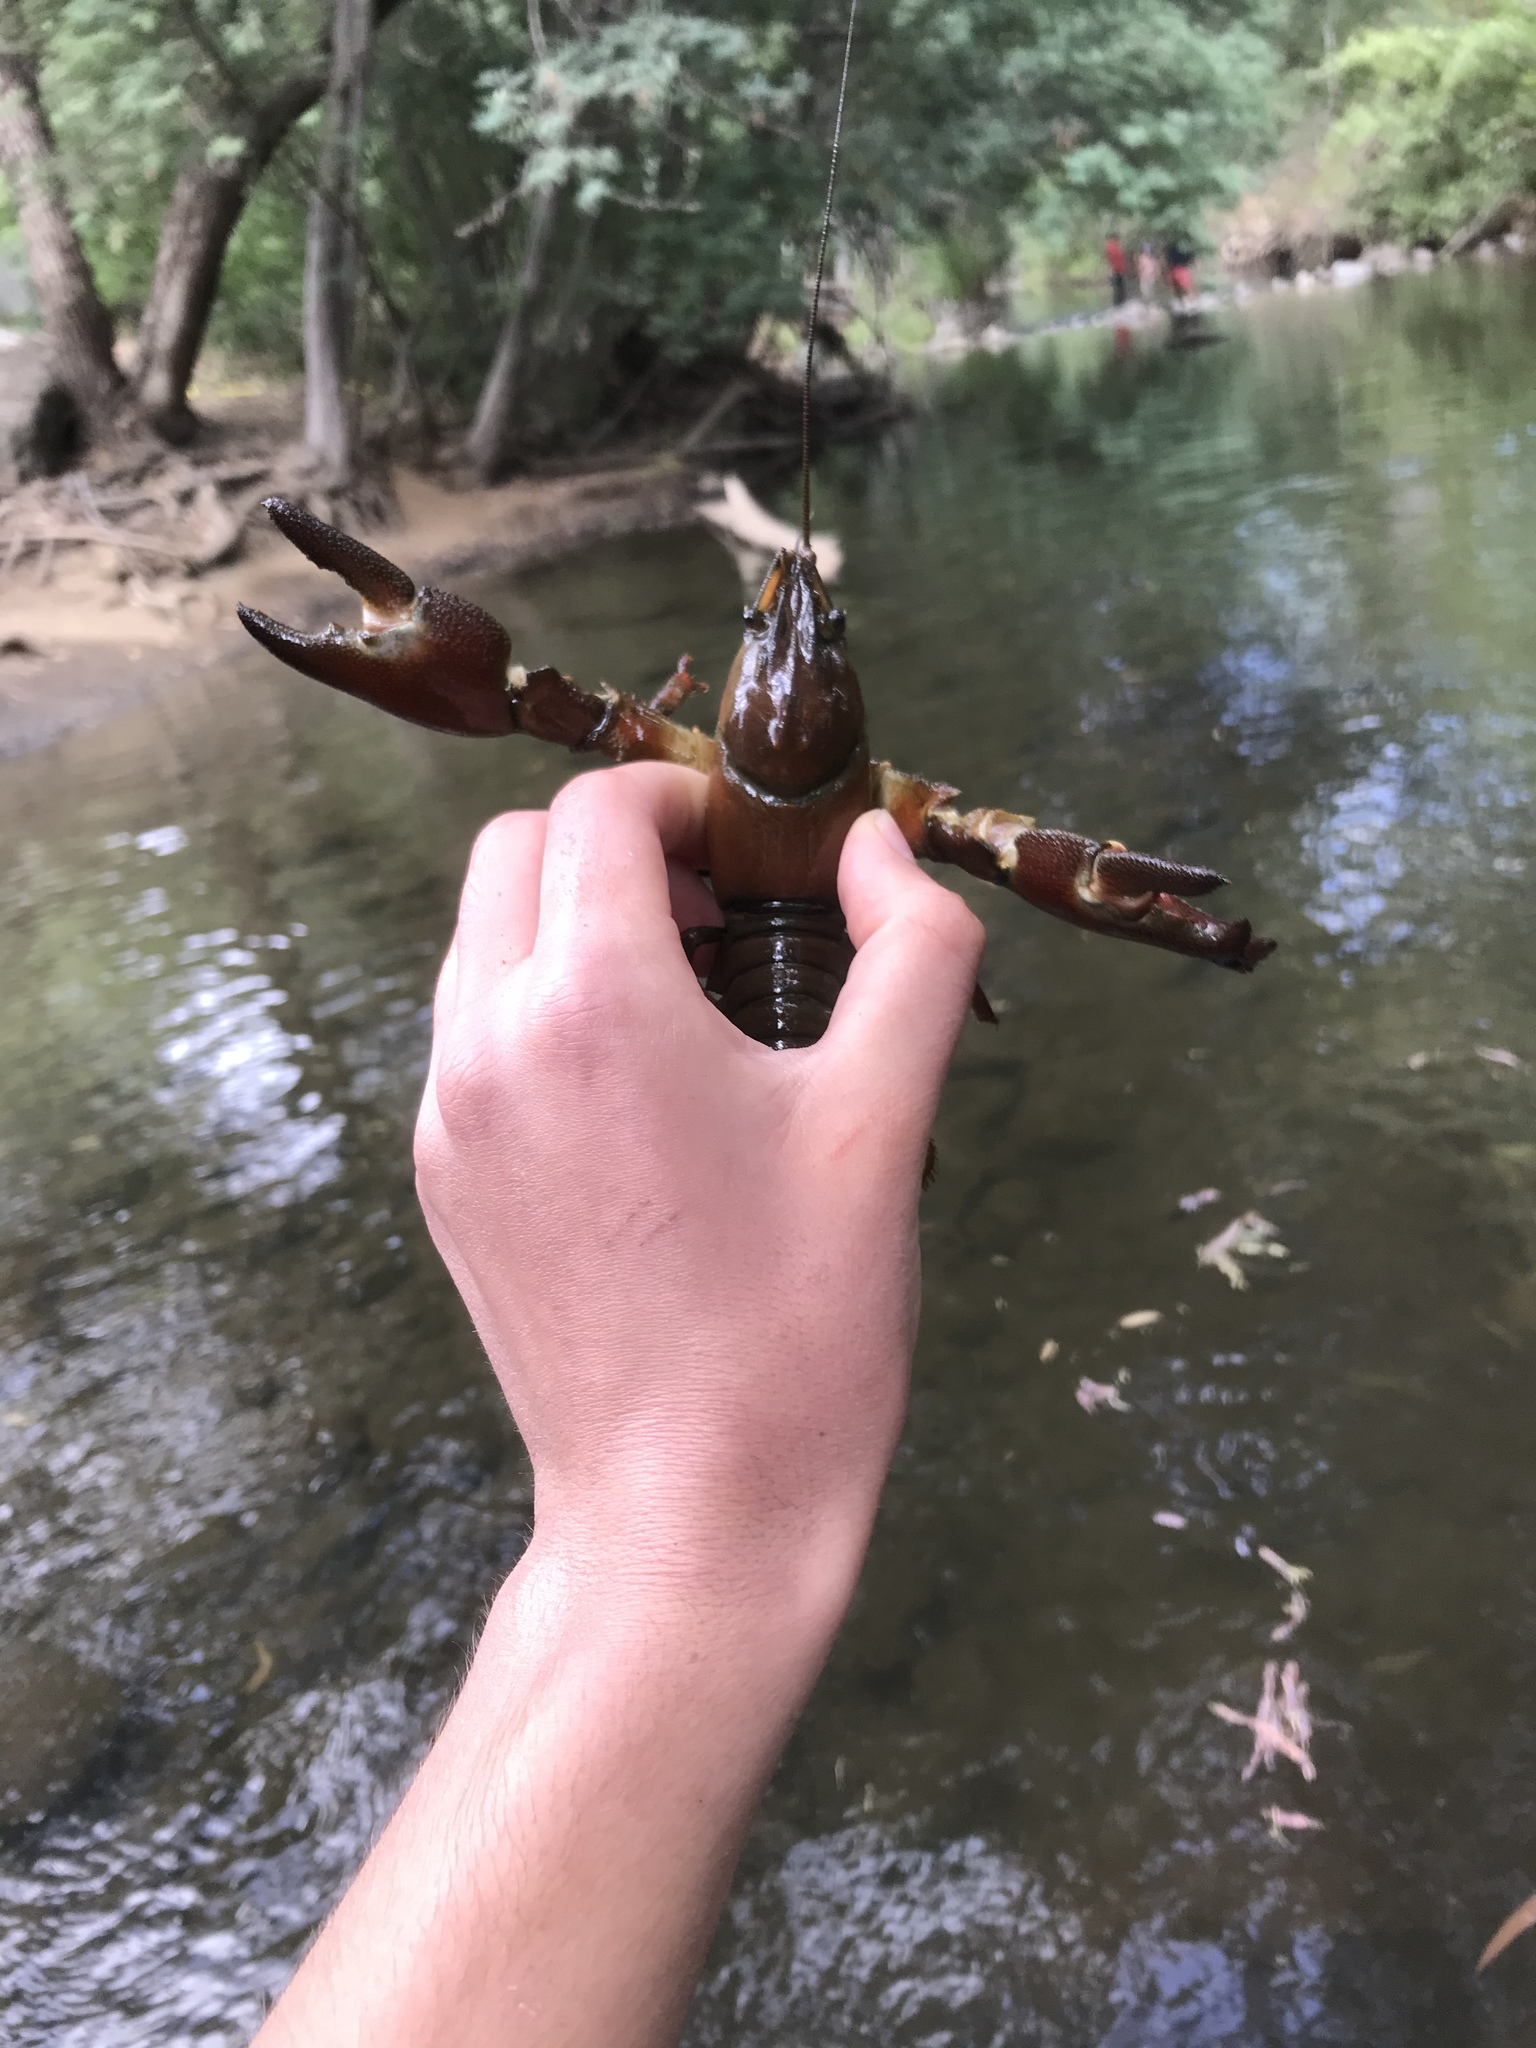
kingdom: Animalia
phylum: Arthropoda
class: Malacostraca
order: Decapoda
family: Astacidae
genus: Pacifastacus
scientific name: Pacifastacus leniusculus
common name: Signal crayfish
